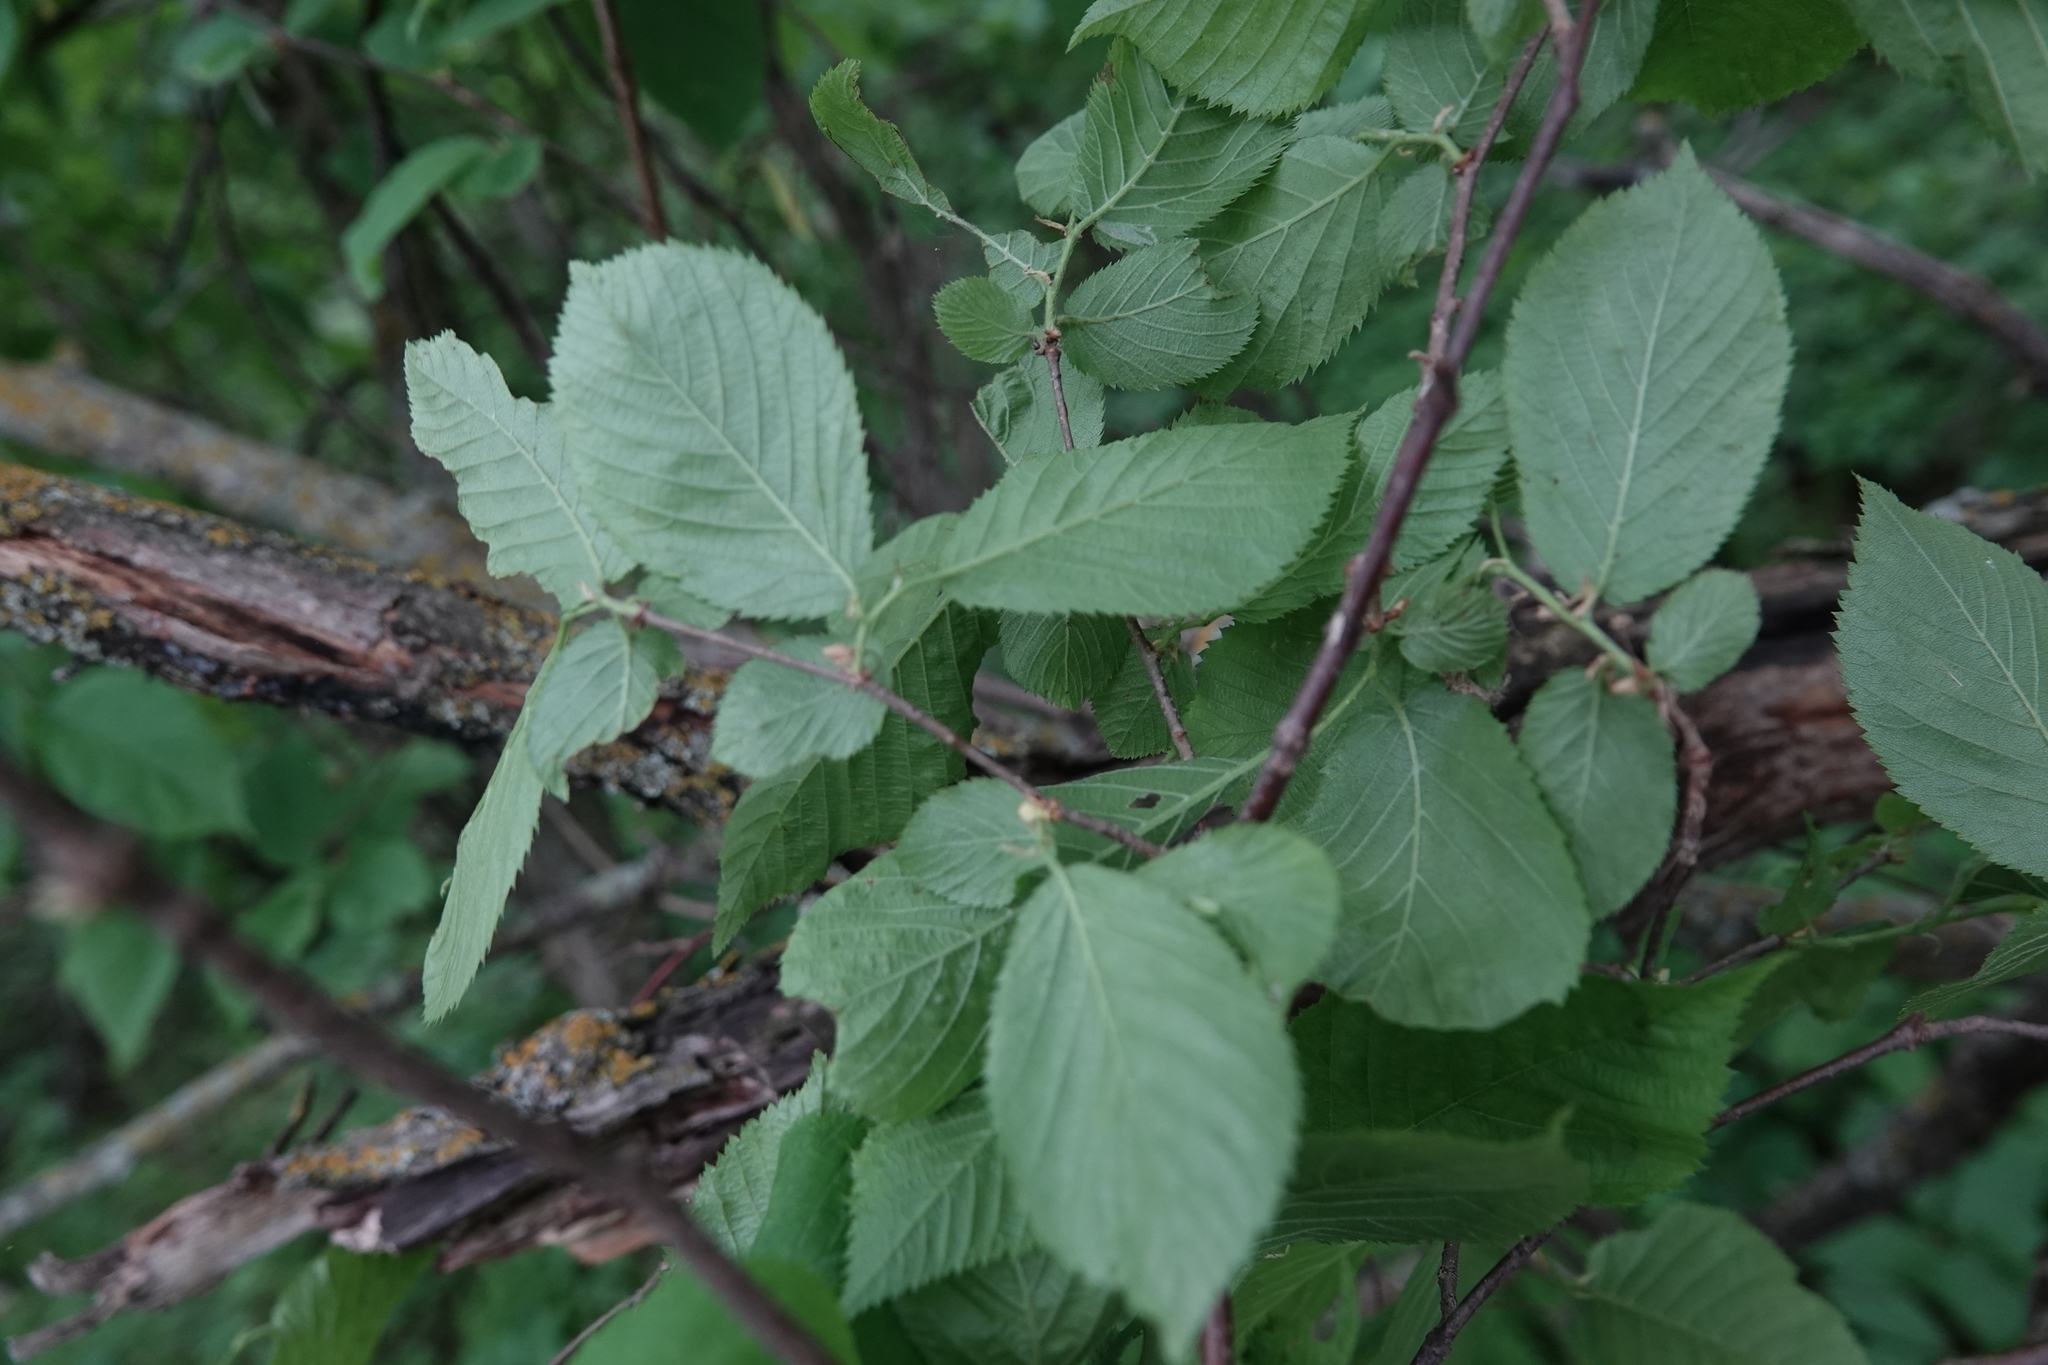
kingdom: Plantae
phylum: Tracheophyta
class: Magnoliopsida
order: Fagales
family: Betulaceae
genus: Ostrya
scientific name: Ostrya virginiana
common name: Ironwood
